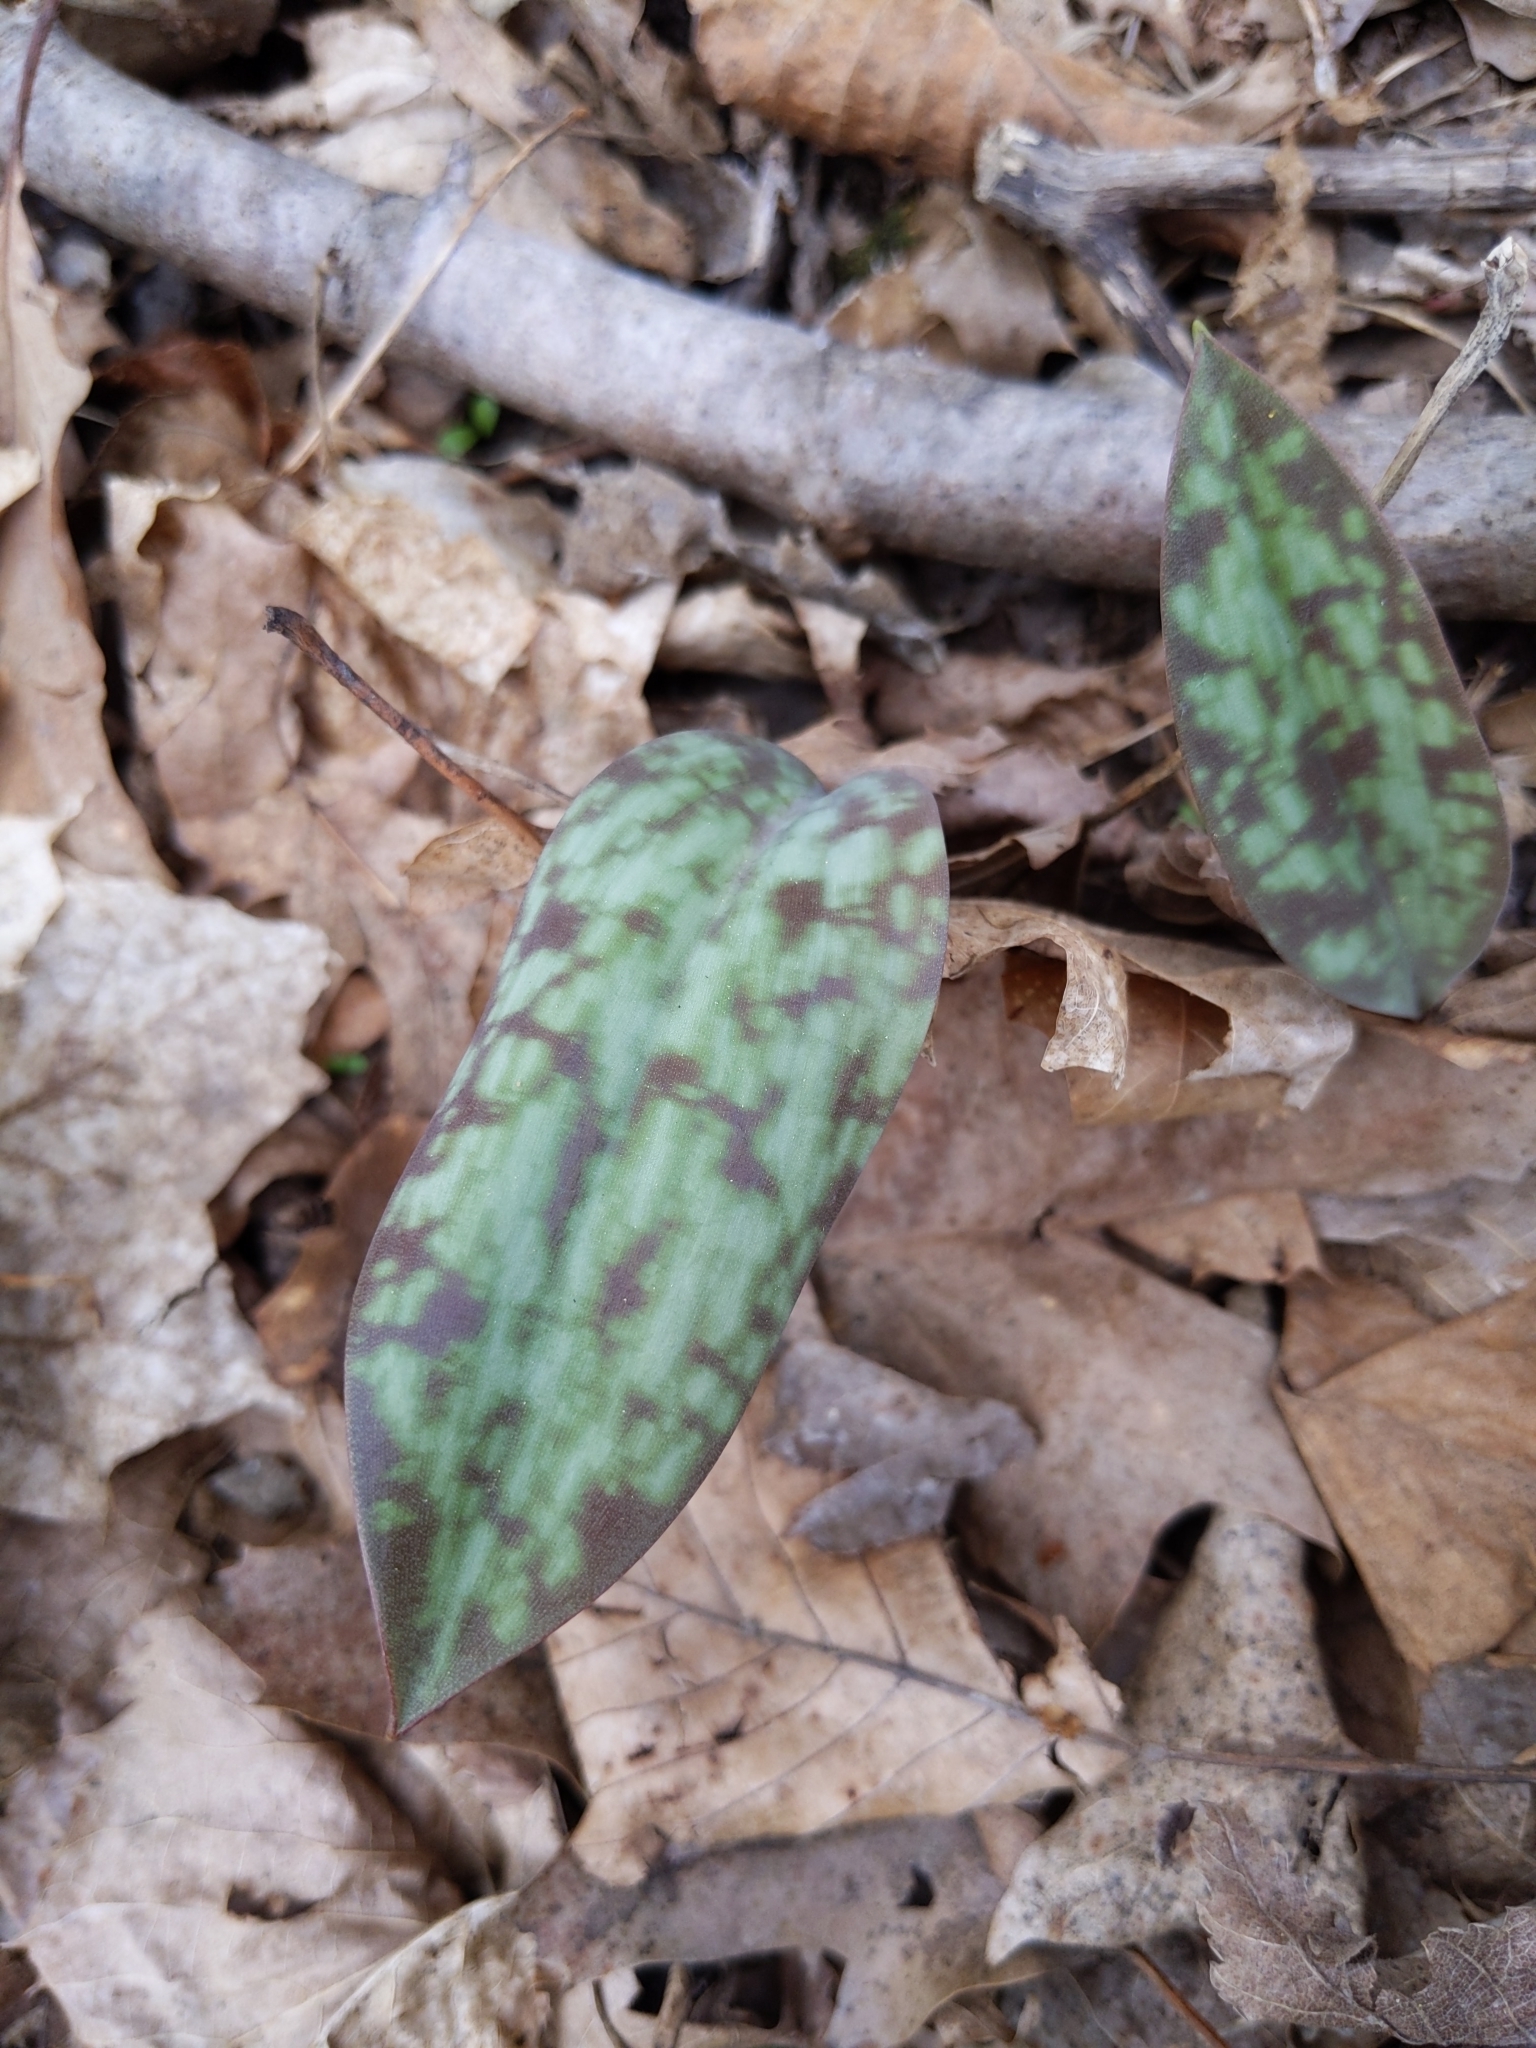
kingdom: Plantae
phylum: Tracheophyta
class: Liliopsida
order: Liliales
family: Liliaceae
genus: Erythronium
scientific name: Erythronium americanum
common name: Yellow adder's-tongue
